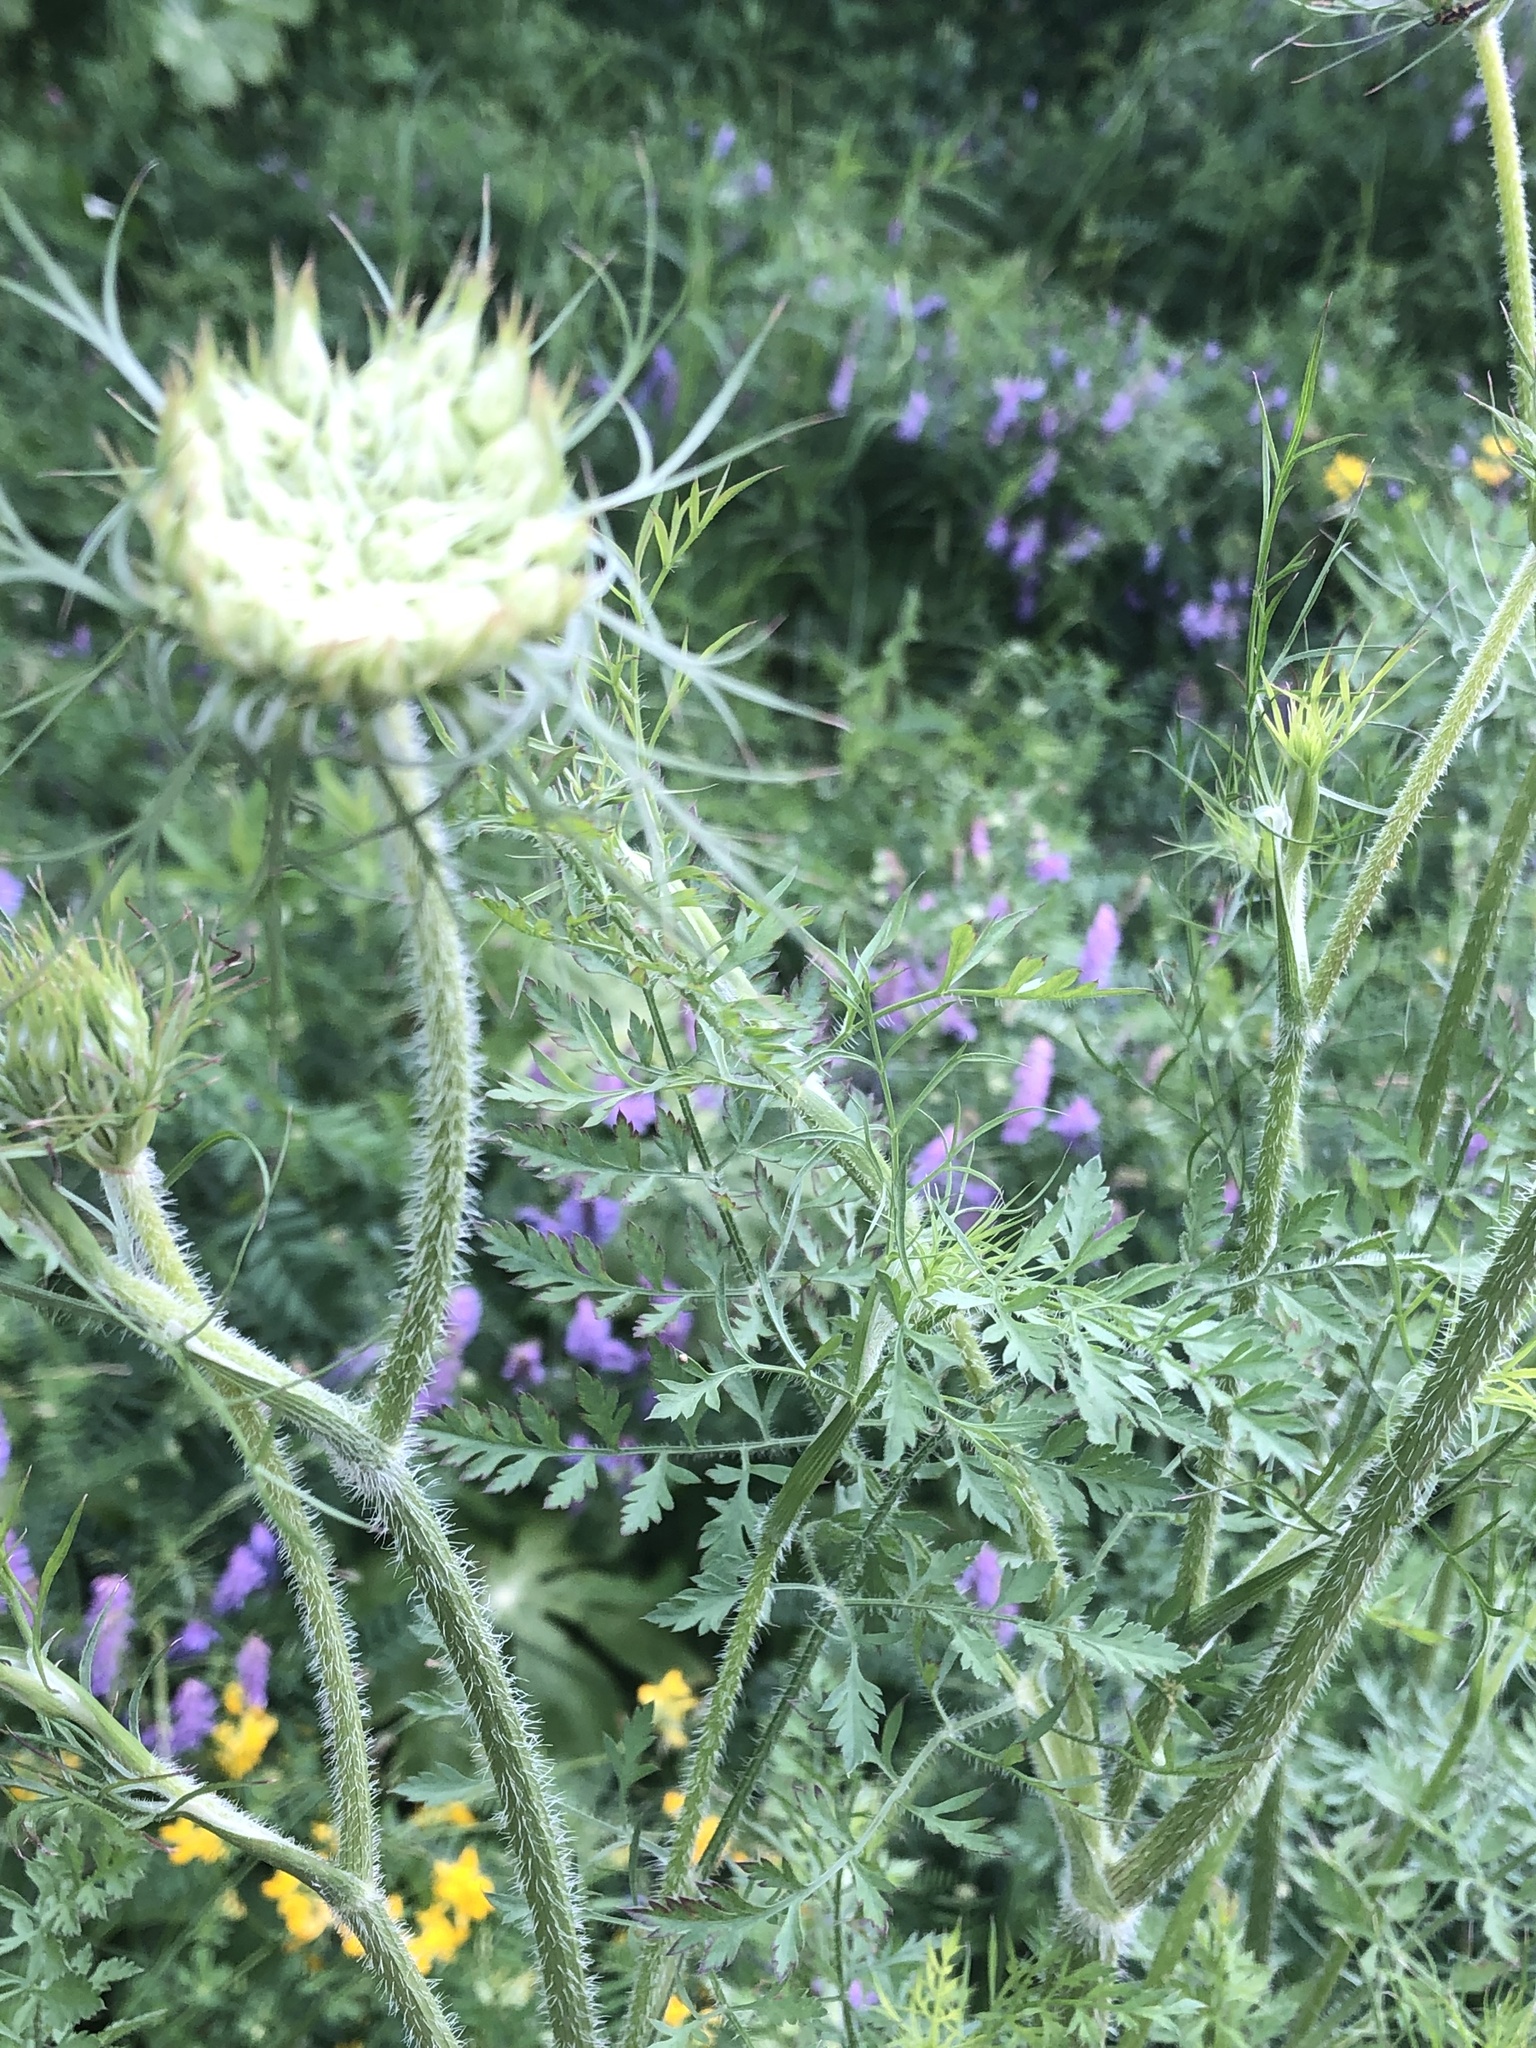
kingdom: Plantae
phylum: Tracheophyta
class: Magnoliopsida
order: Apiales
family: Apiaceae
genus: Daucus
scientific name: Daucus carota
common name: Wild carrot
